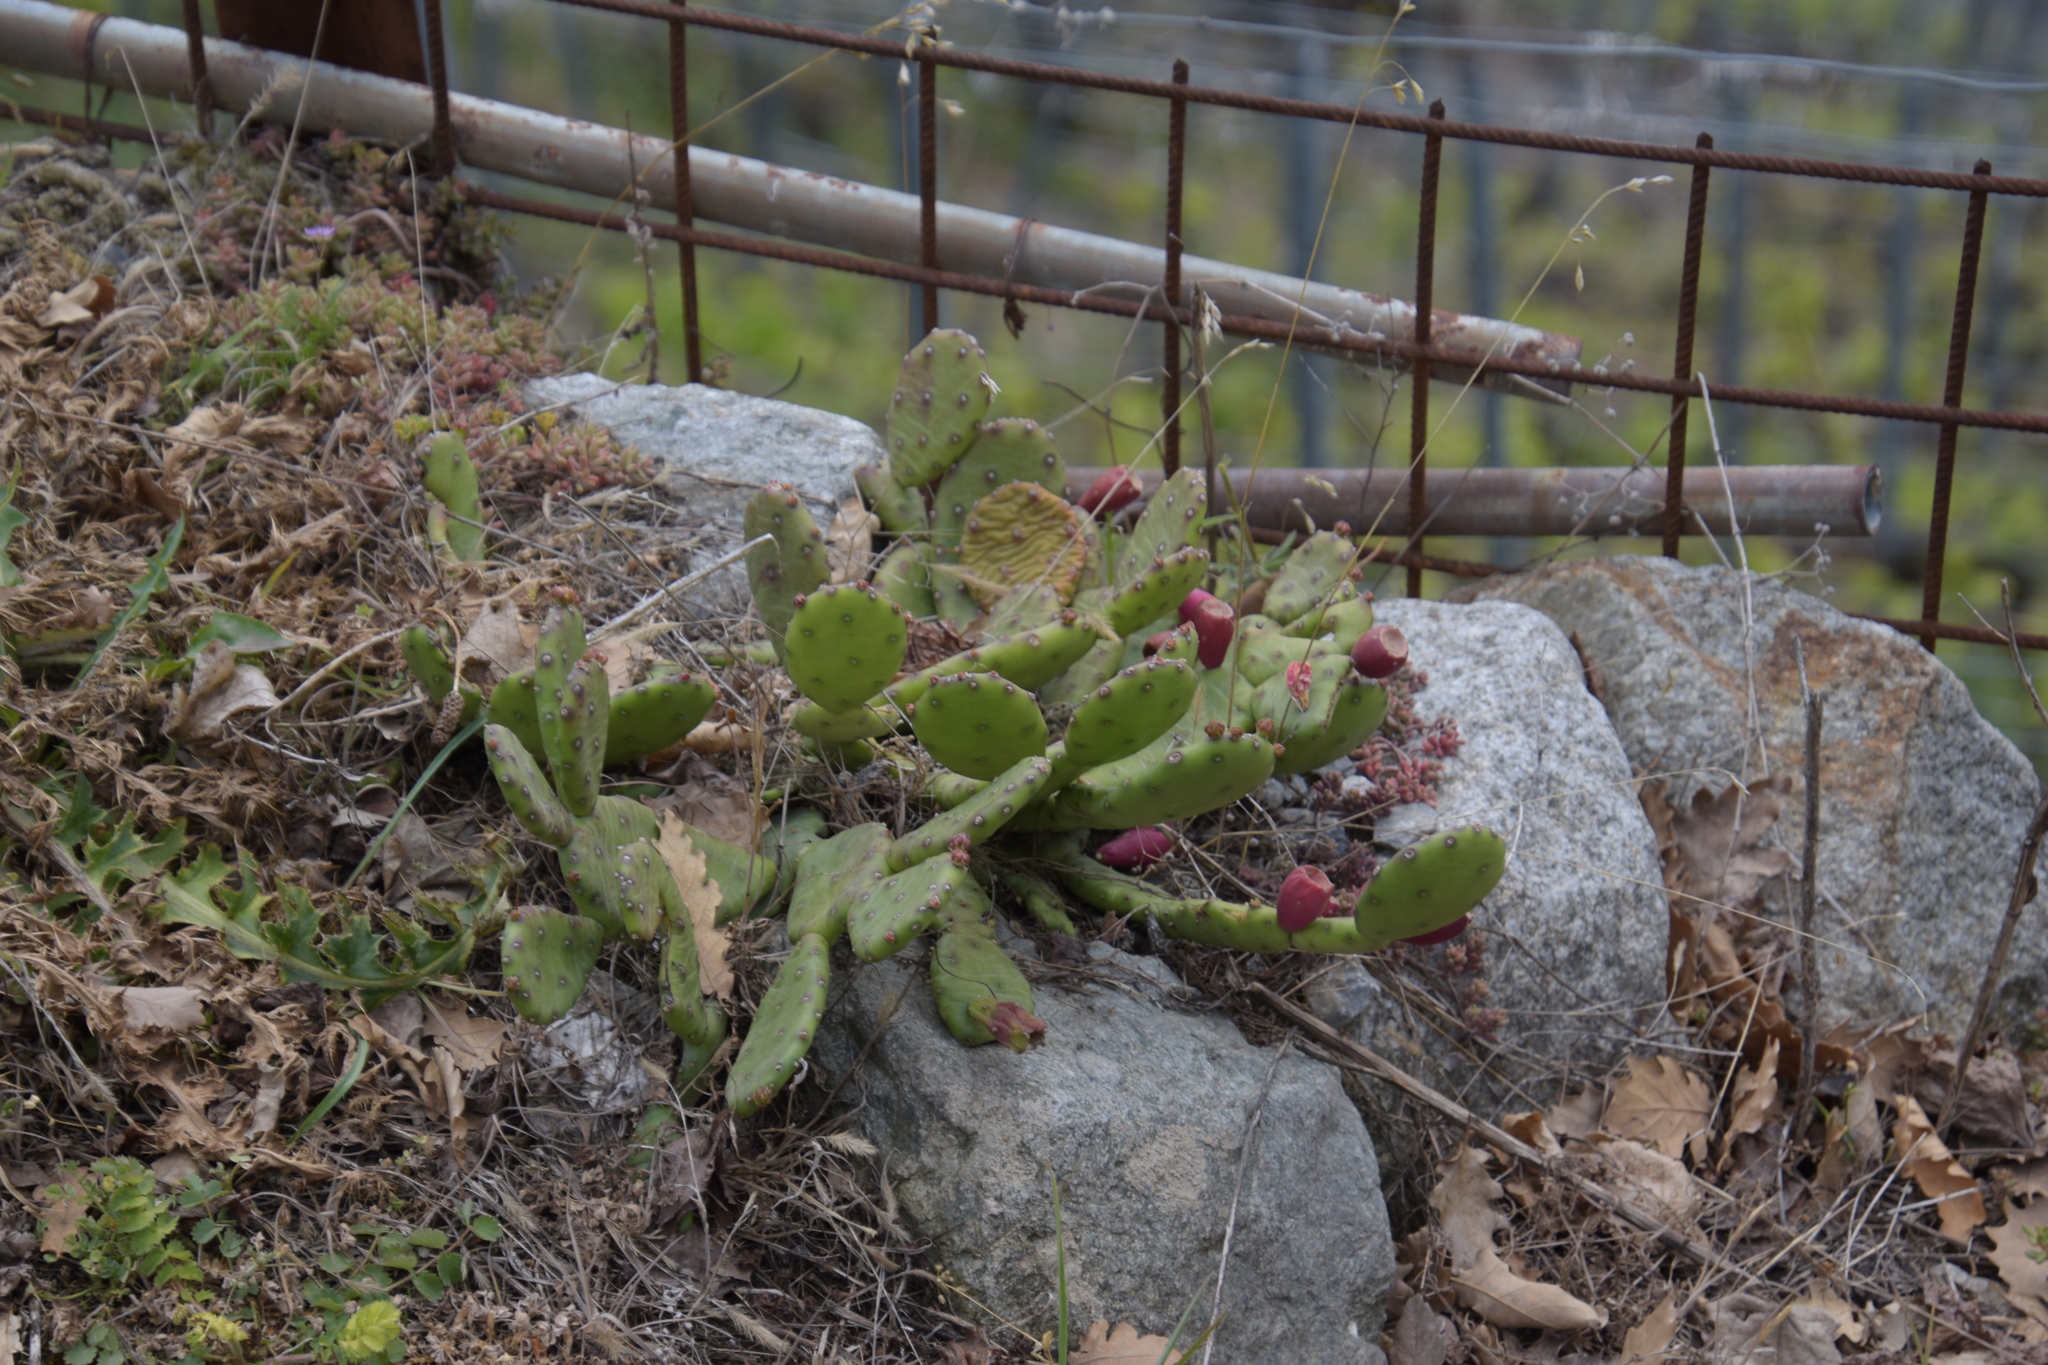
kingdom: Plantae
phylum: Tracheophyta
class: Magnoliopsida
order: Caryophyllales
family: Cactaceae
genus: Opuntia
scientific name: Opuntia humifusa
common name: Eastern prickly-pear
